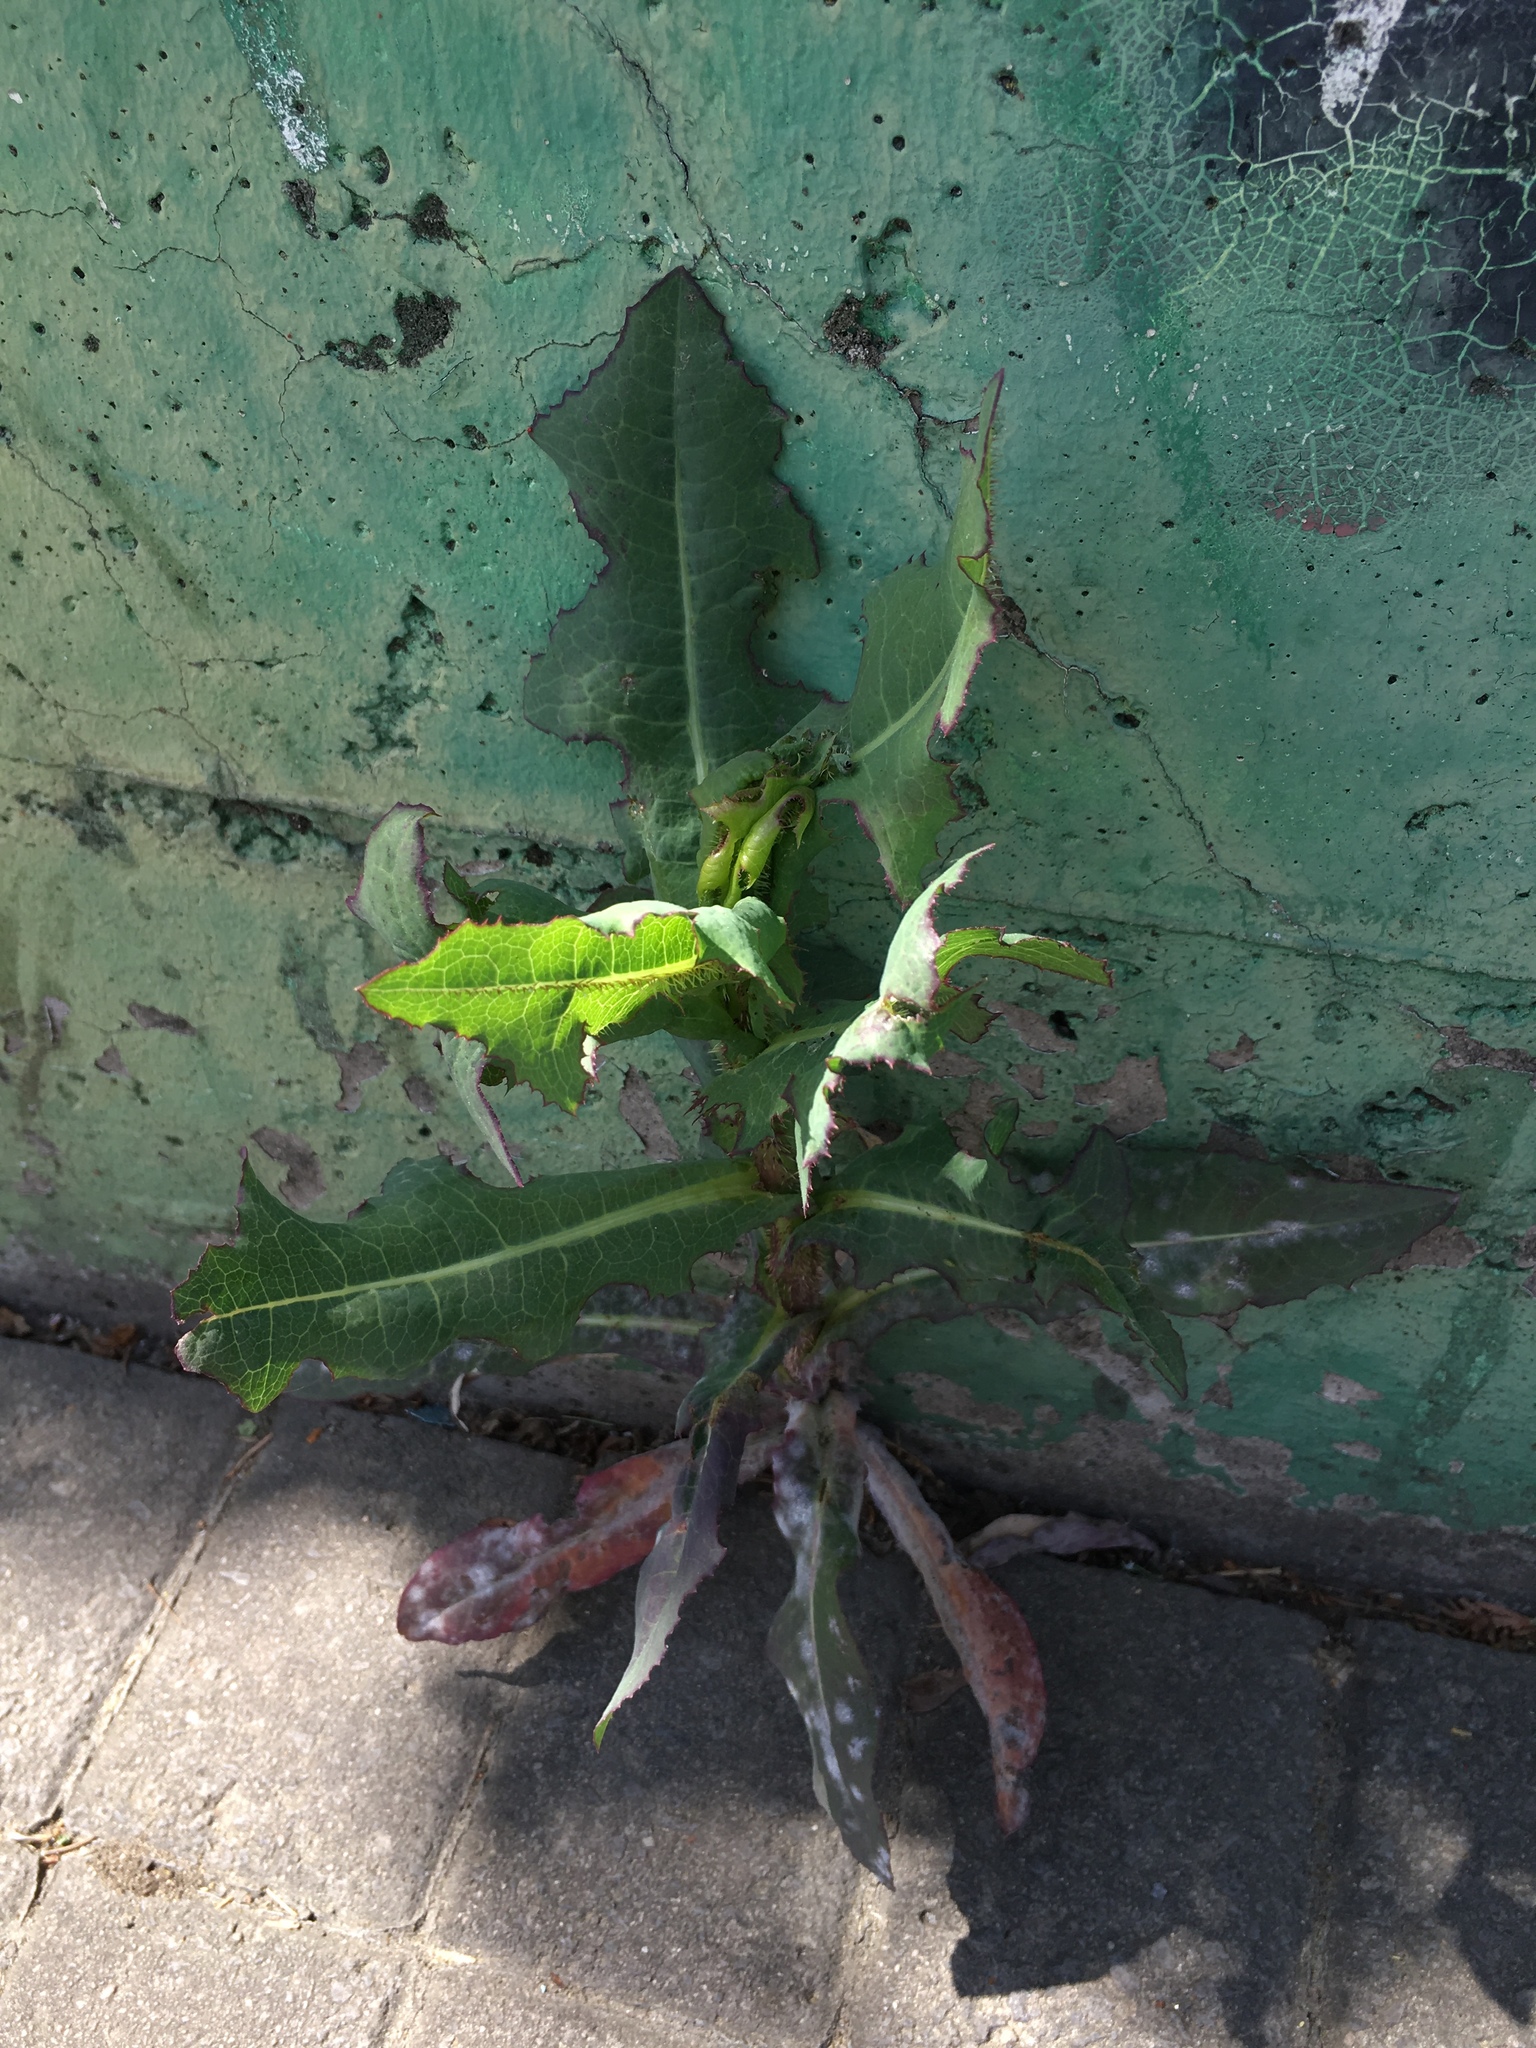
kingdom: Plantae
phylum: Tracheophyta
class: Magnoliopsida
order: Asterales
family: Asteraceae
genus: Lactuca
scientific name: Lactuca serriola
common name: Prickly lettuce
